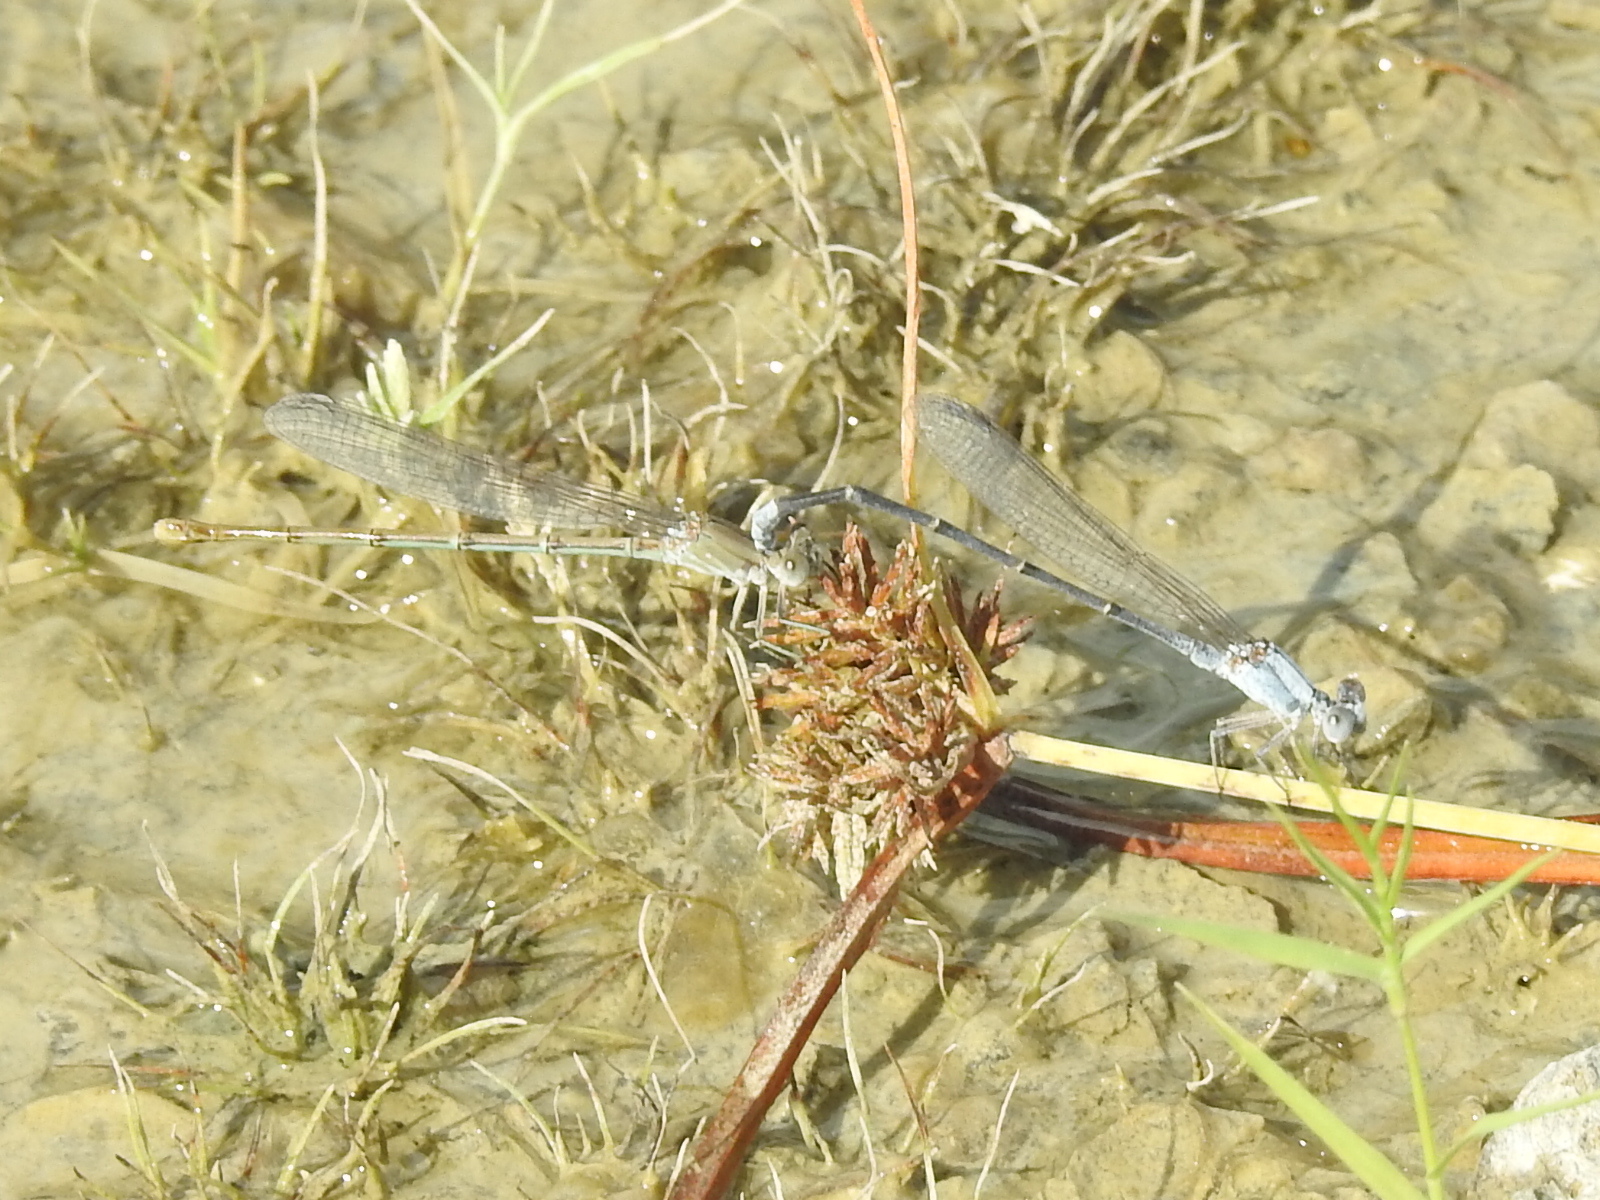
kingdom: Animalia
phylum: Arthropoda
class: Insecta
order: Odonata
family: Coenagrionidae
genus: Argia
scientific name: Argia moesta
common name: Powdered dancer
